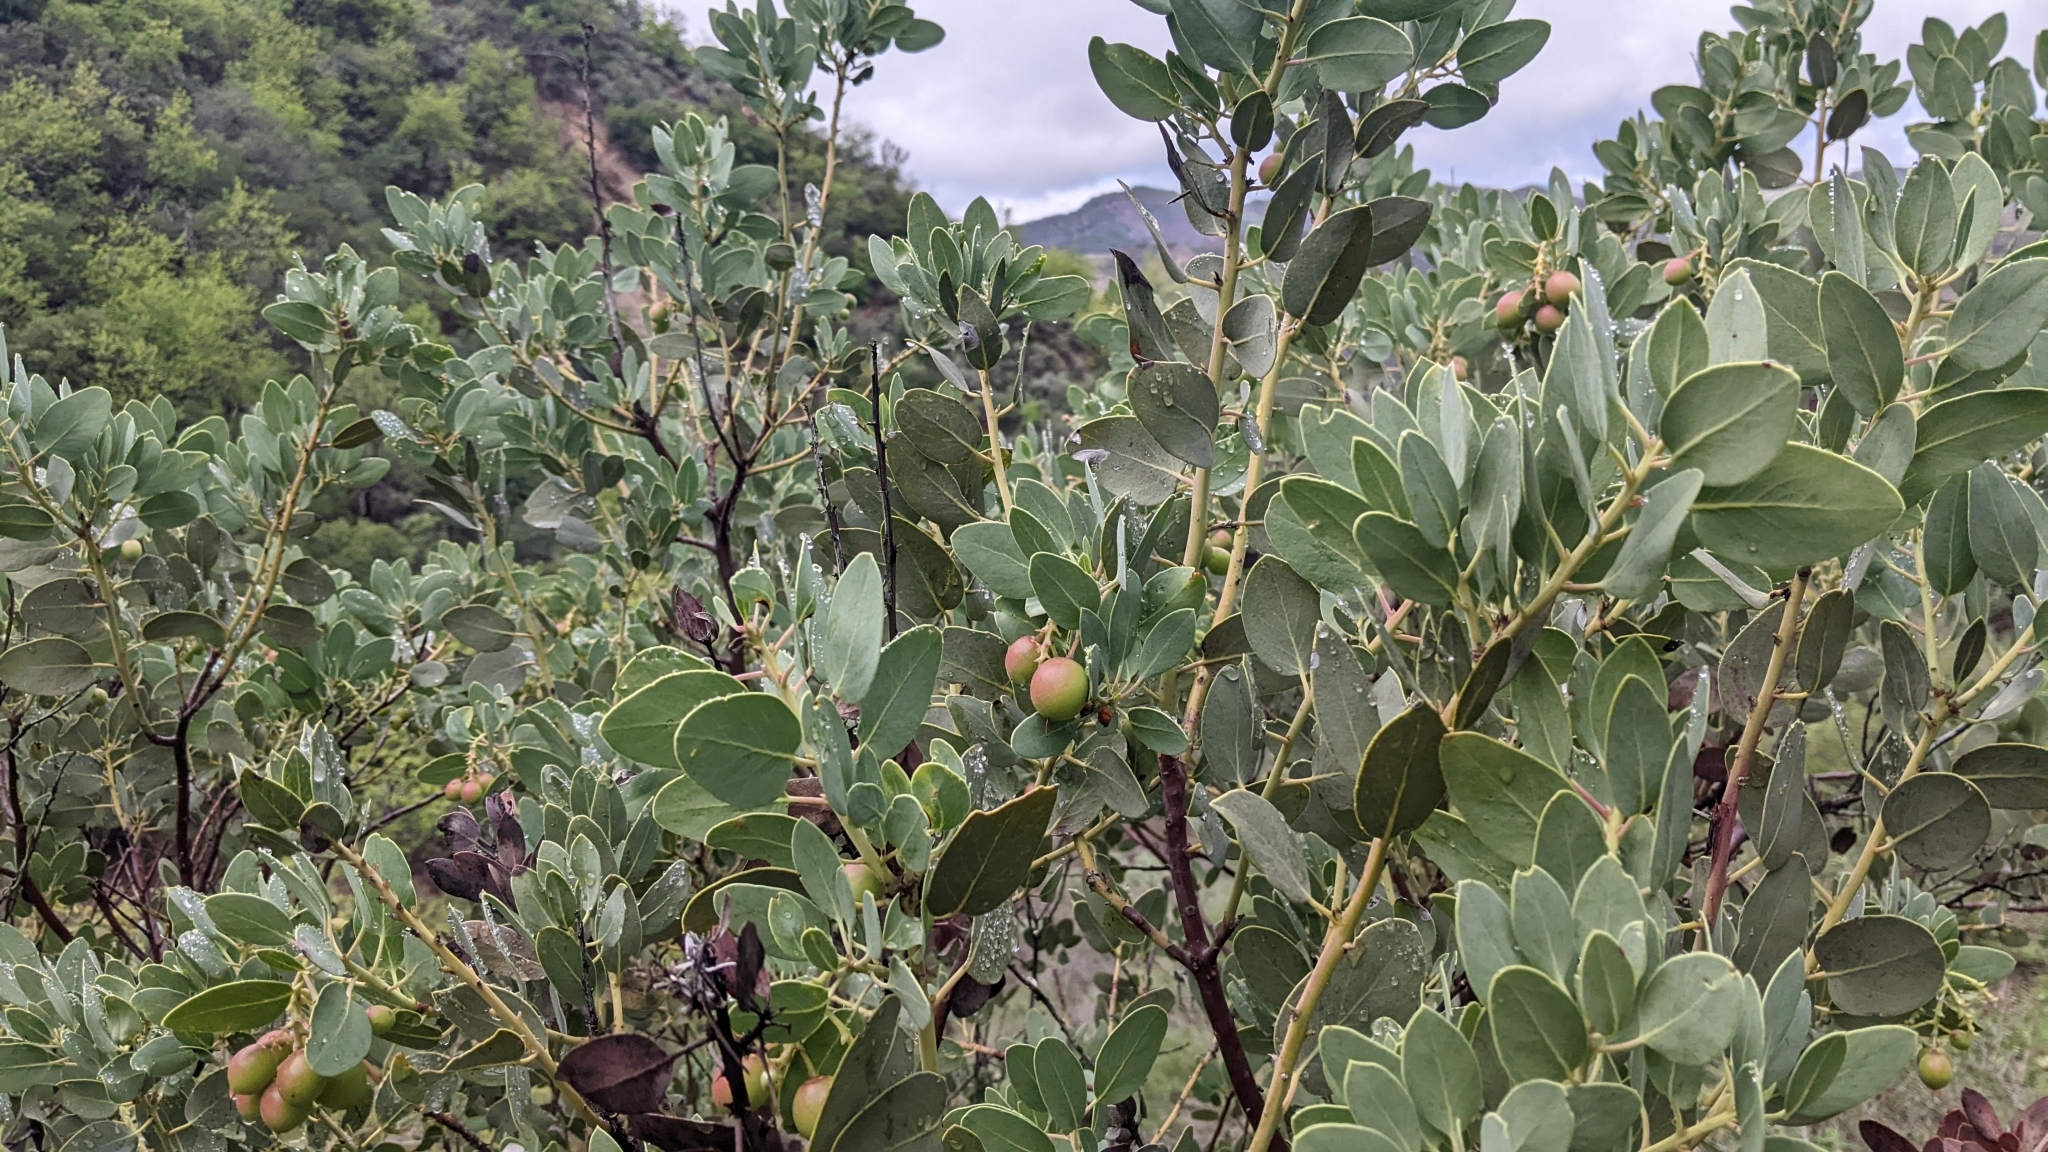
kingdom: Plantae
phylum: Tracheophyta
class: Magnoliopsida
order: Ericales
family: Ericaceae
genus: Arctostaphylos
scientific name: Arctostaphylos glauca
